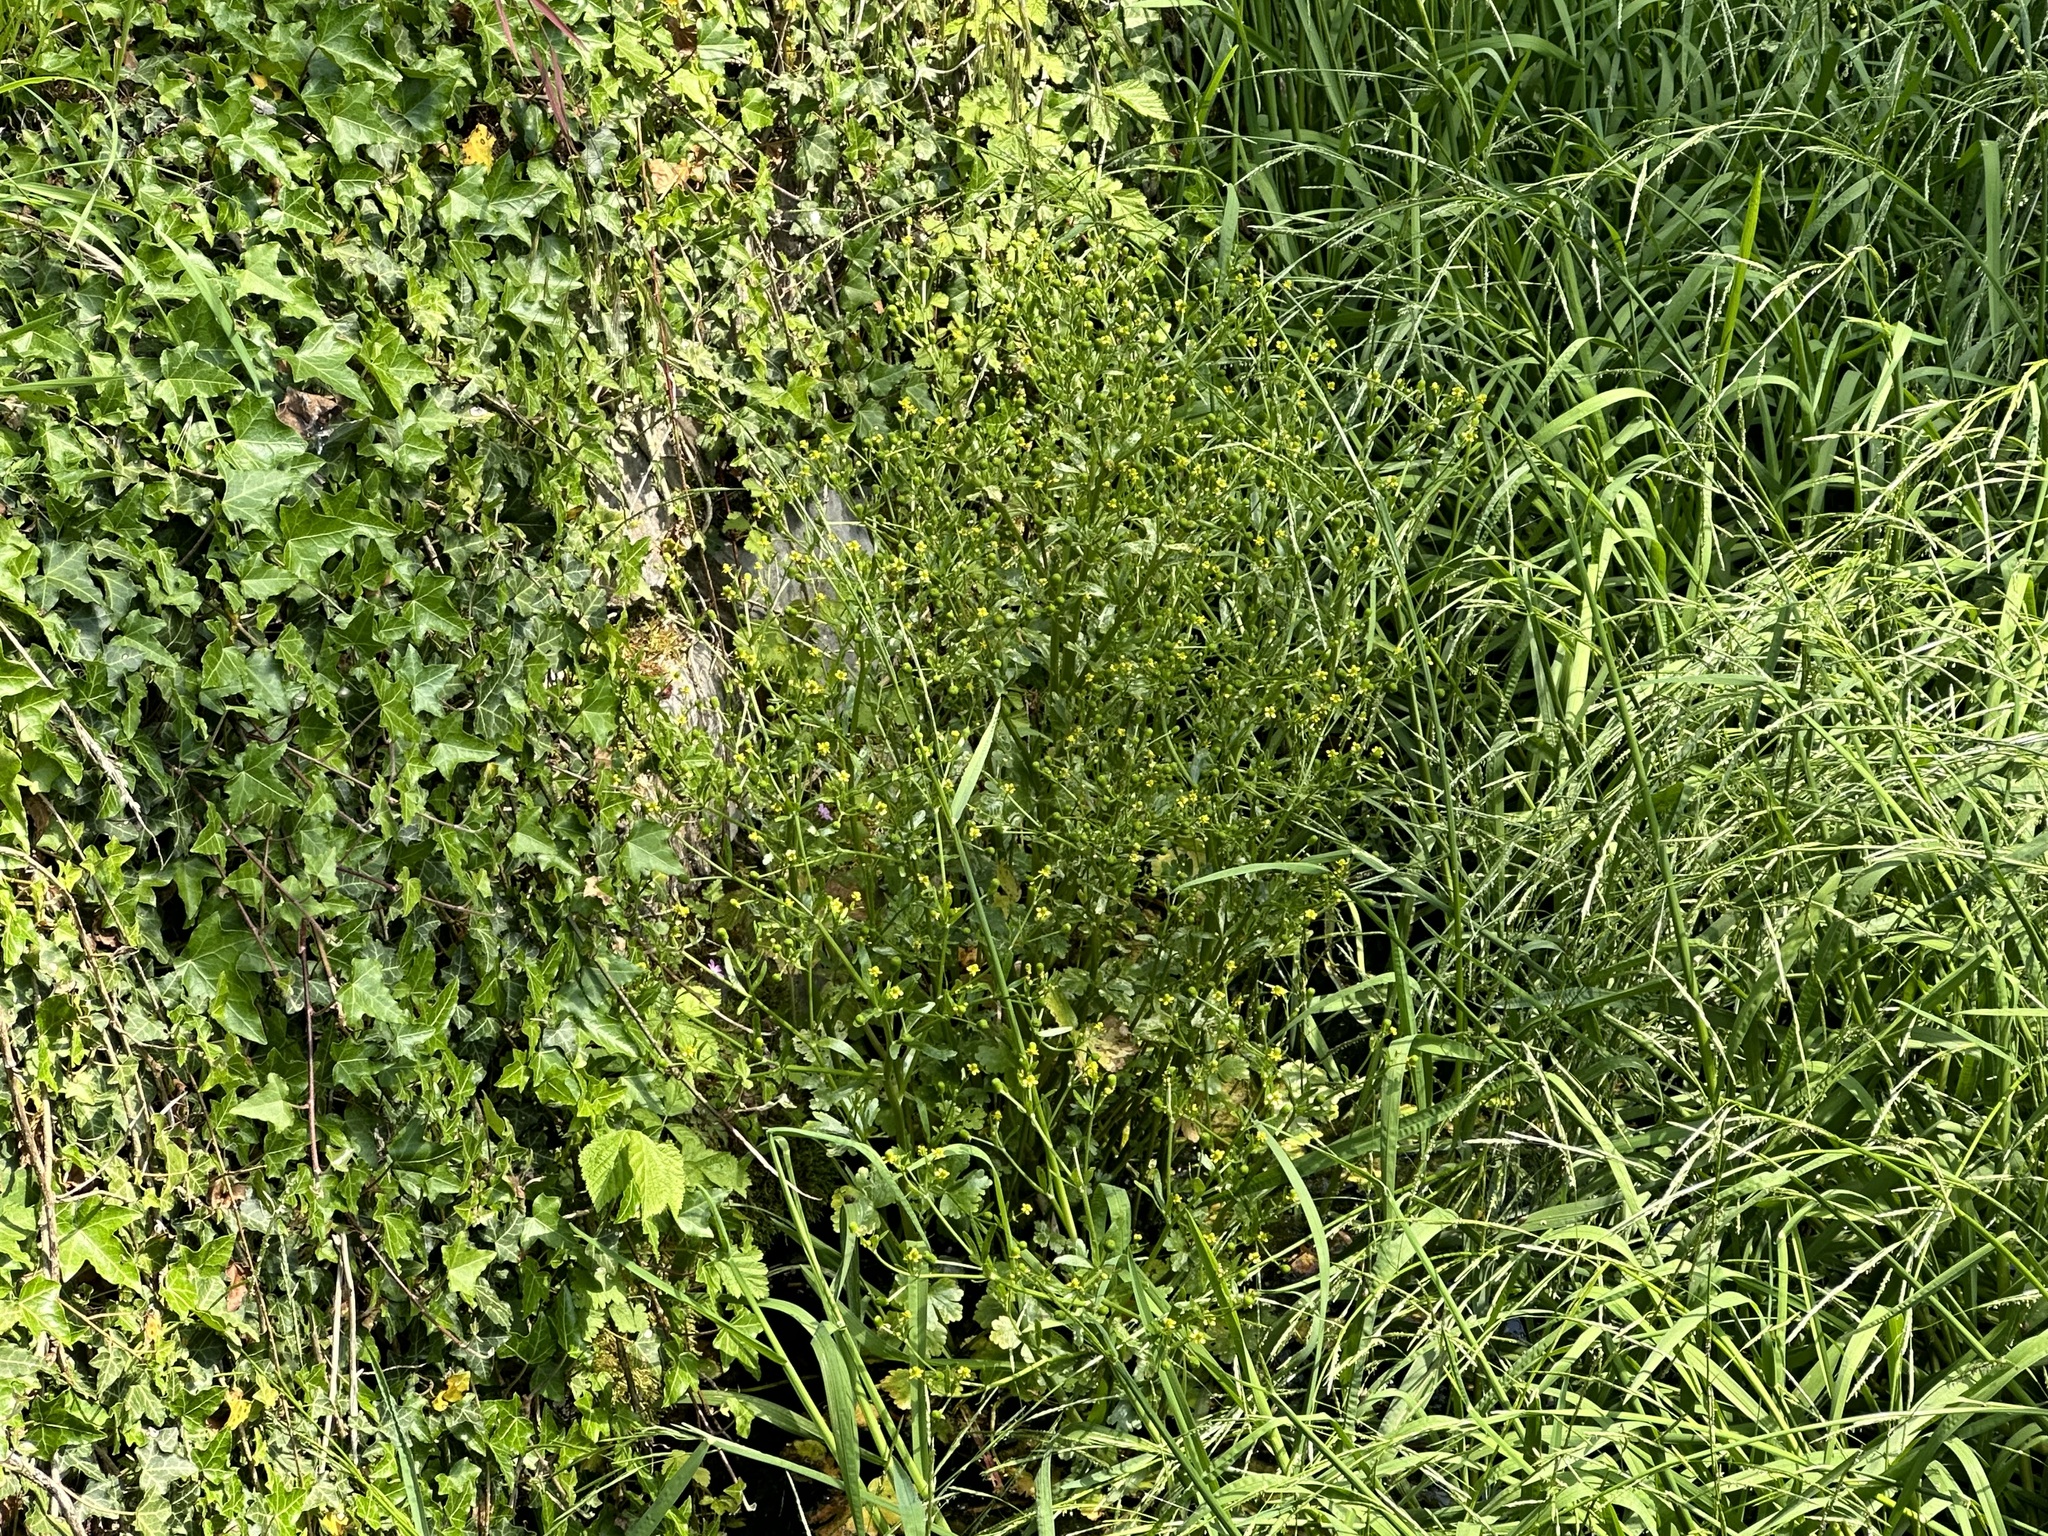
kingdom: Plantae
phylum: Tracheophyta
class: Magnoliopsida
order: Ranunculales
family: Ranunculaceae
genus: Ranunculus
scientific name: Ranunculus sceleratus
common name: Celery-leaved buttercup
